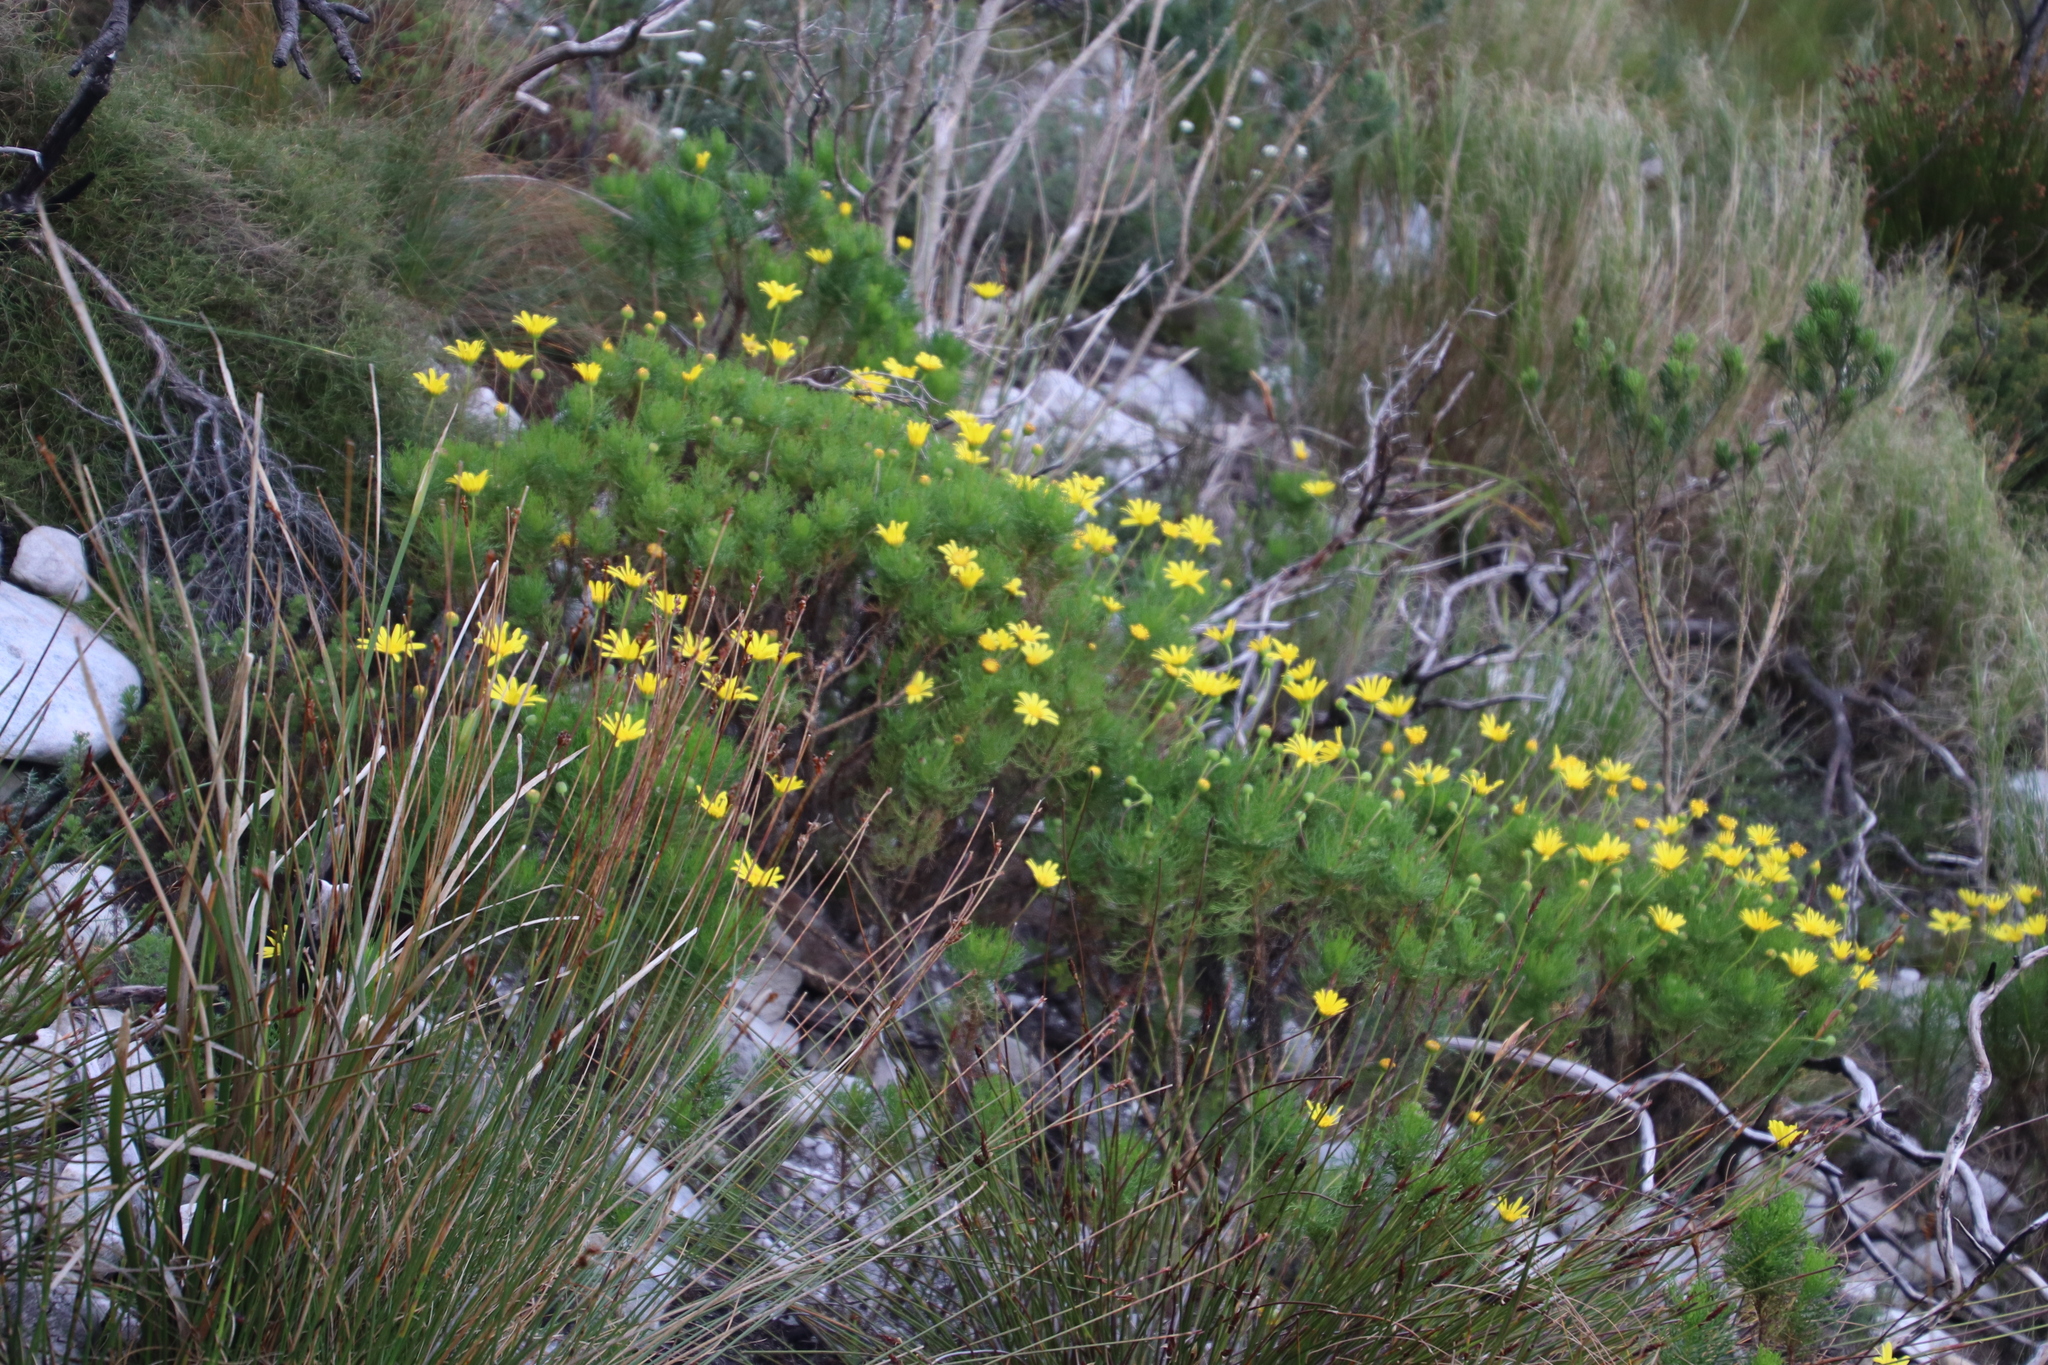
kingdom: Plantae
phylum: Tracheophyta
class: Magnoliopsida
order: Asterales
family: Asteraceae
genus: Euryops
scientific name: Euryops abrotanifolius
